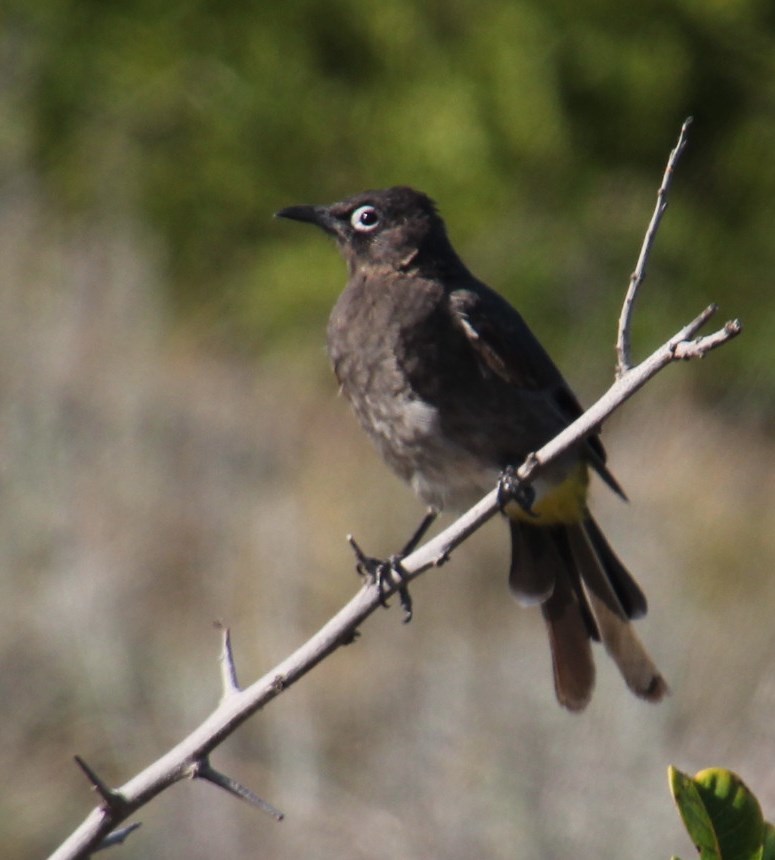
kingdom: Animalia
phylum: Chordata
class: Aves
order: Passeriformes
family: Pycnonotidae
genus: Pycnonotus
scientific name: Pycnonotus capensis
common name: Cape bulbul
